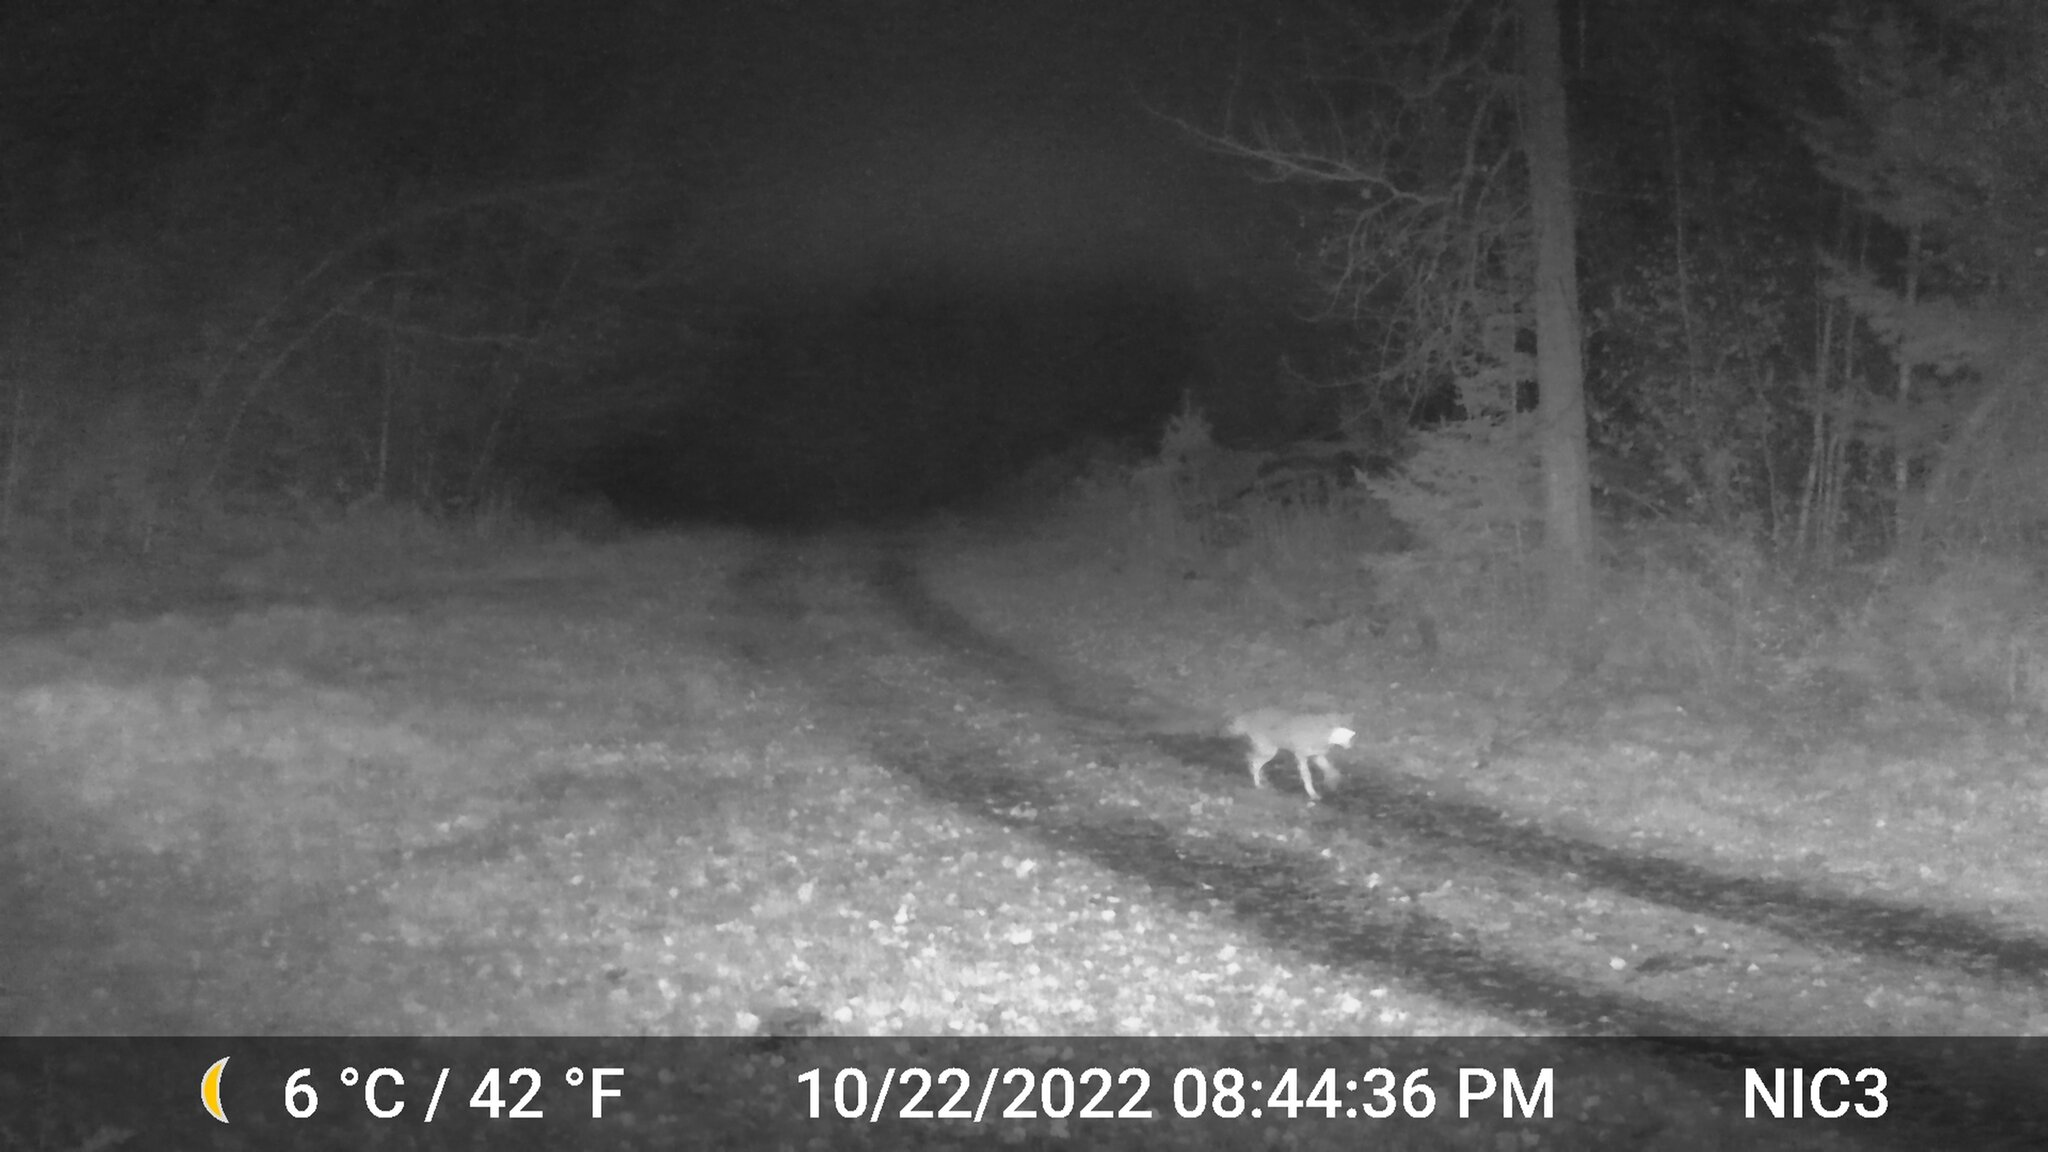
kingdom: Animalia
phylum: Chordata
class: Mammalia
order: Carnivora
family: Canidae
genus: Canis
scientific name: Canis latrans
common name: Coyote
